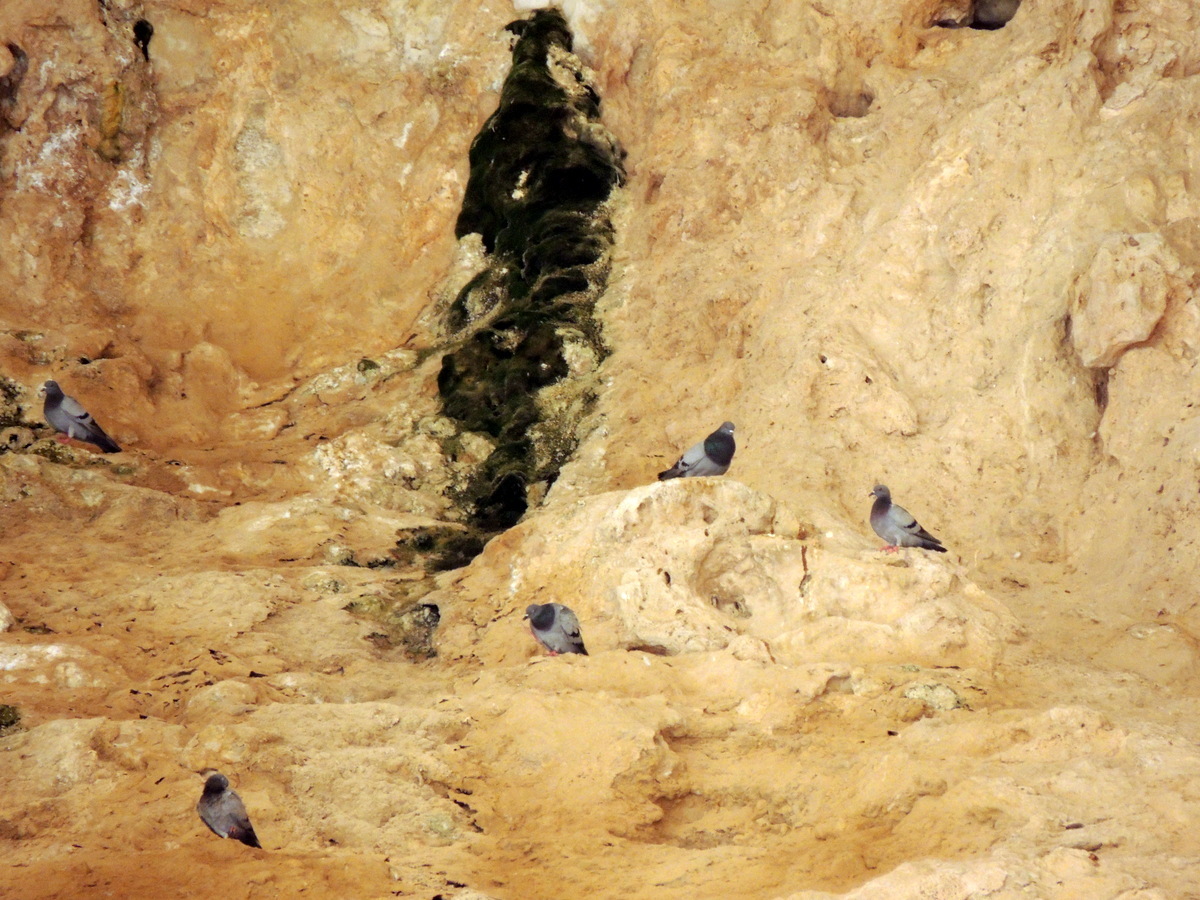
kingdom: Animalia
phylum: Chordata
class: Aves
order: Columbiformes
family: Columbidae
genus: Columba
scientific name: Columba livia
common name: Rock pigeon
